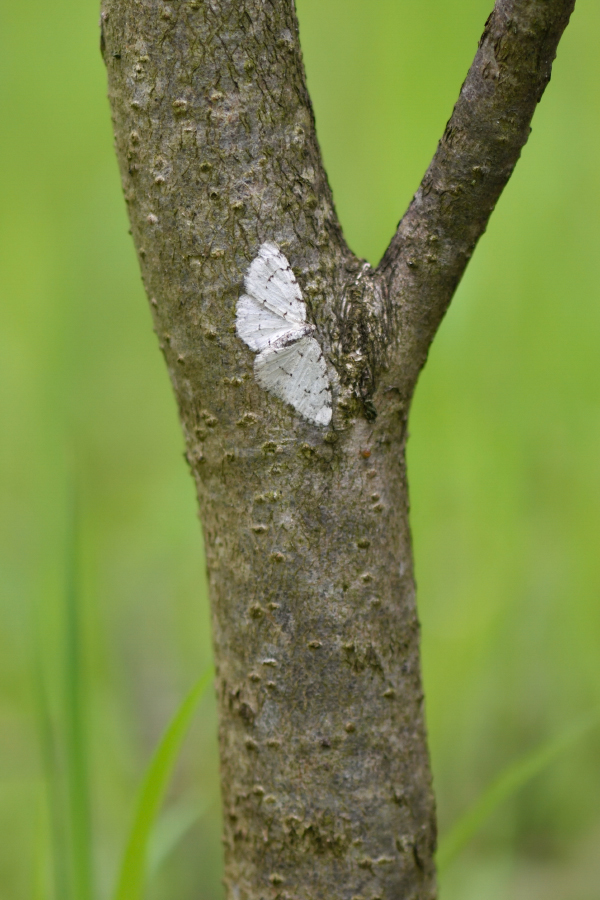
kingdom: Animalia
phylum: Arthropoda
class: Insecta
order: Lepidoptera
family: Geometridae
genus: Aethalura
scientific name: Aethalura punctulata
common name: Grey birch
